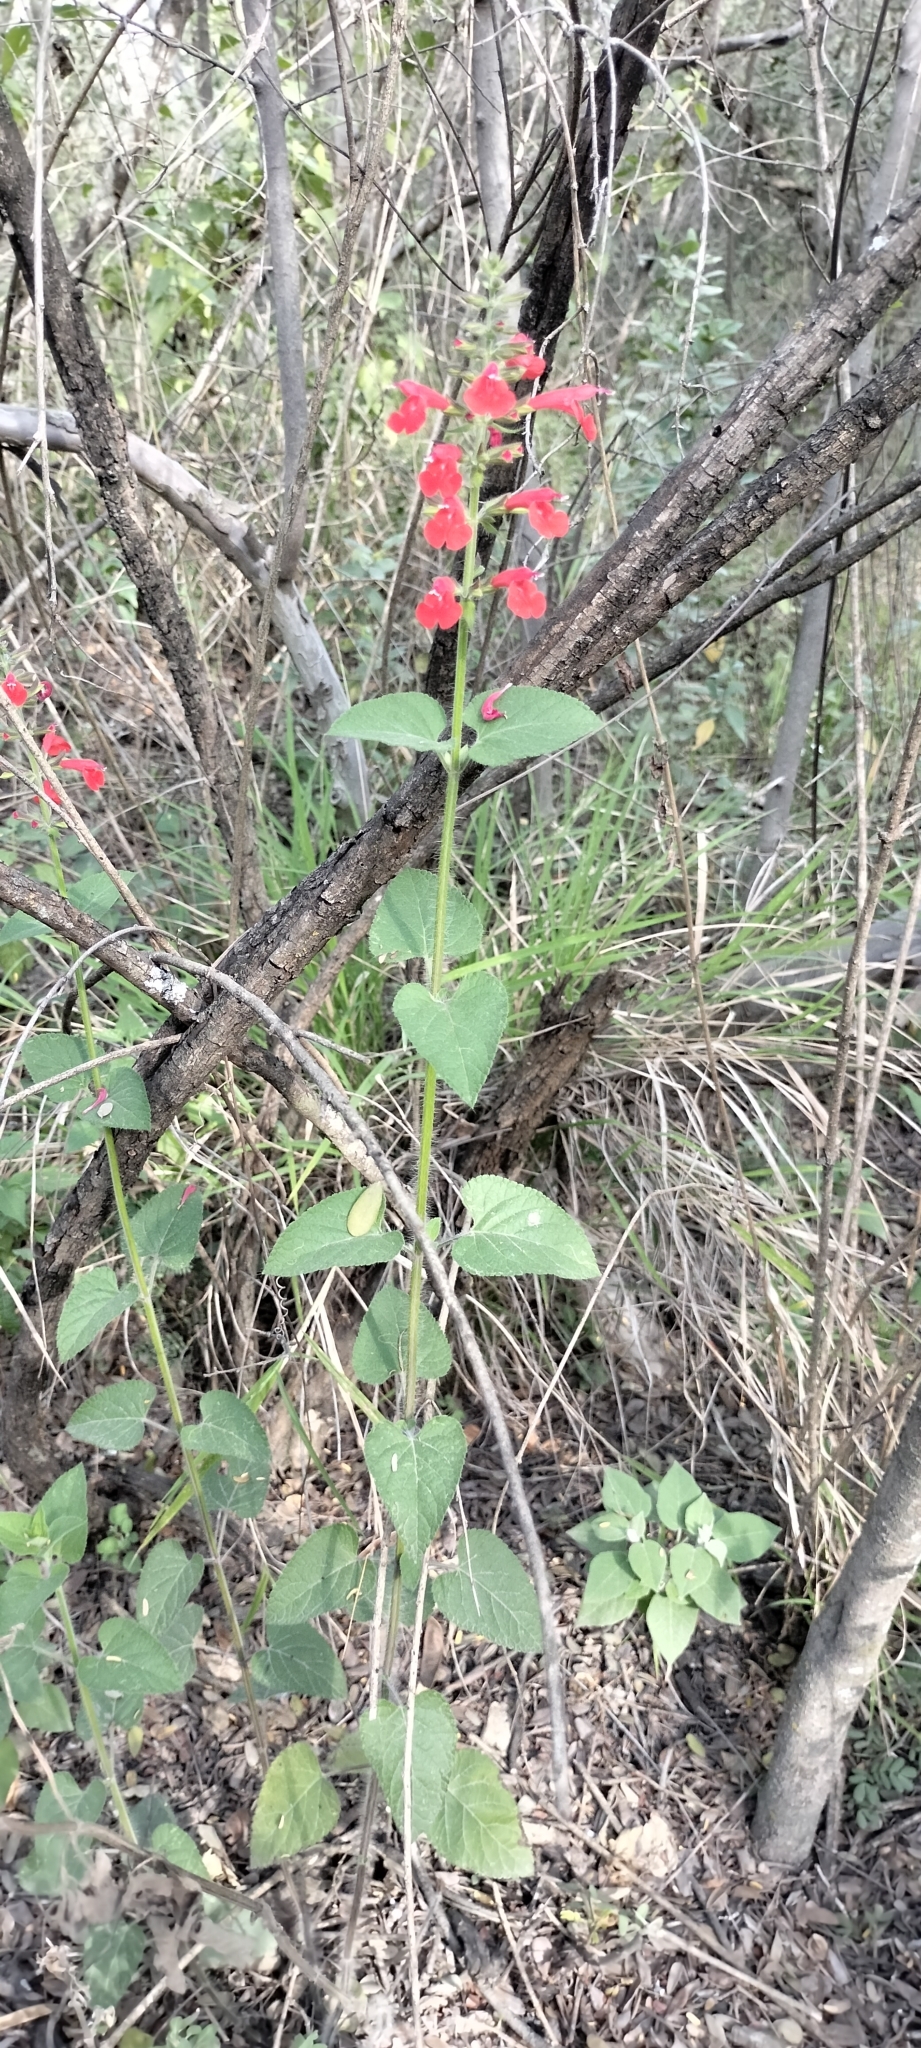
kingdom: Plantae
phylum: Tracheophyta
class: Magnoliopsida
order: Lamiales
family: Lamiaceae
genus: Salvia
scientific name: Salvia coccinea
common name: Blood sage
